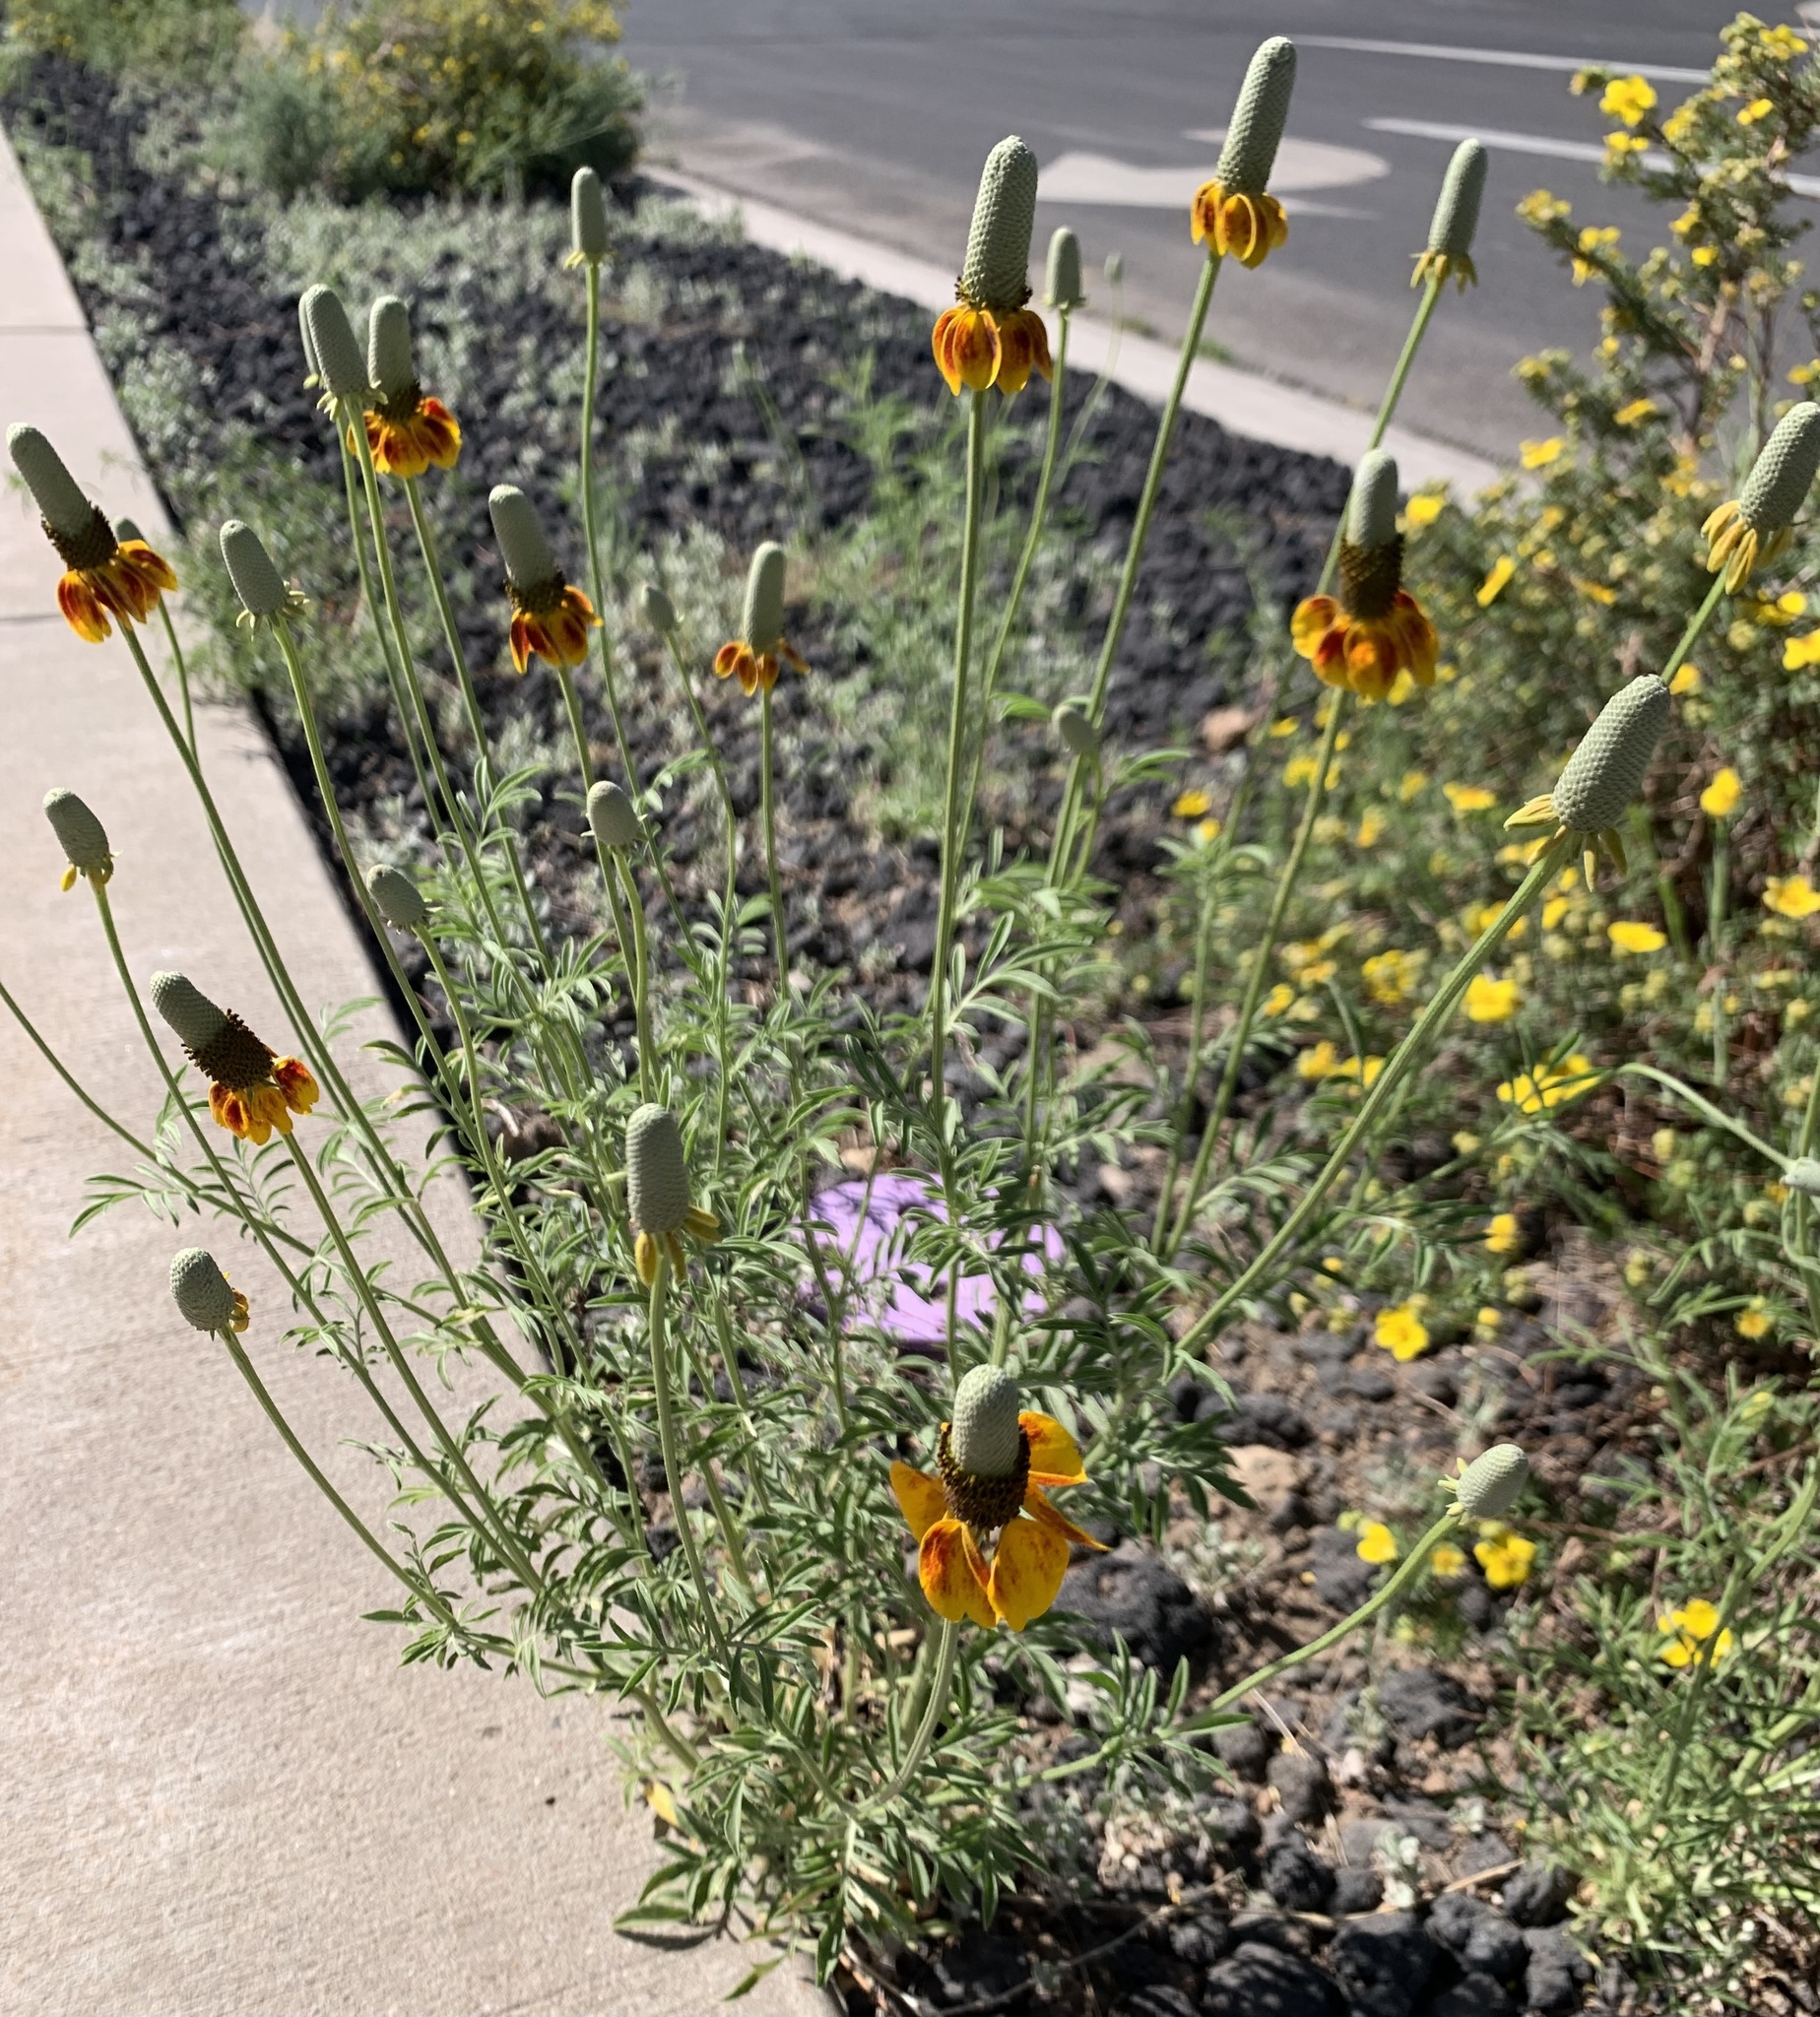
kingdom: Plantae
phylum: Tracheophyta
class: Magnoliopsida
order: Asterales
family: Asteraceae
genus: Ratibida
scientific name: Ratibida columnifera
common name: Prairie coneflower
